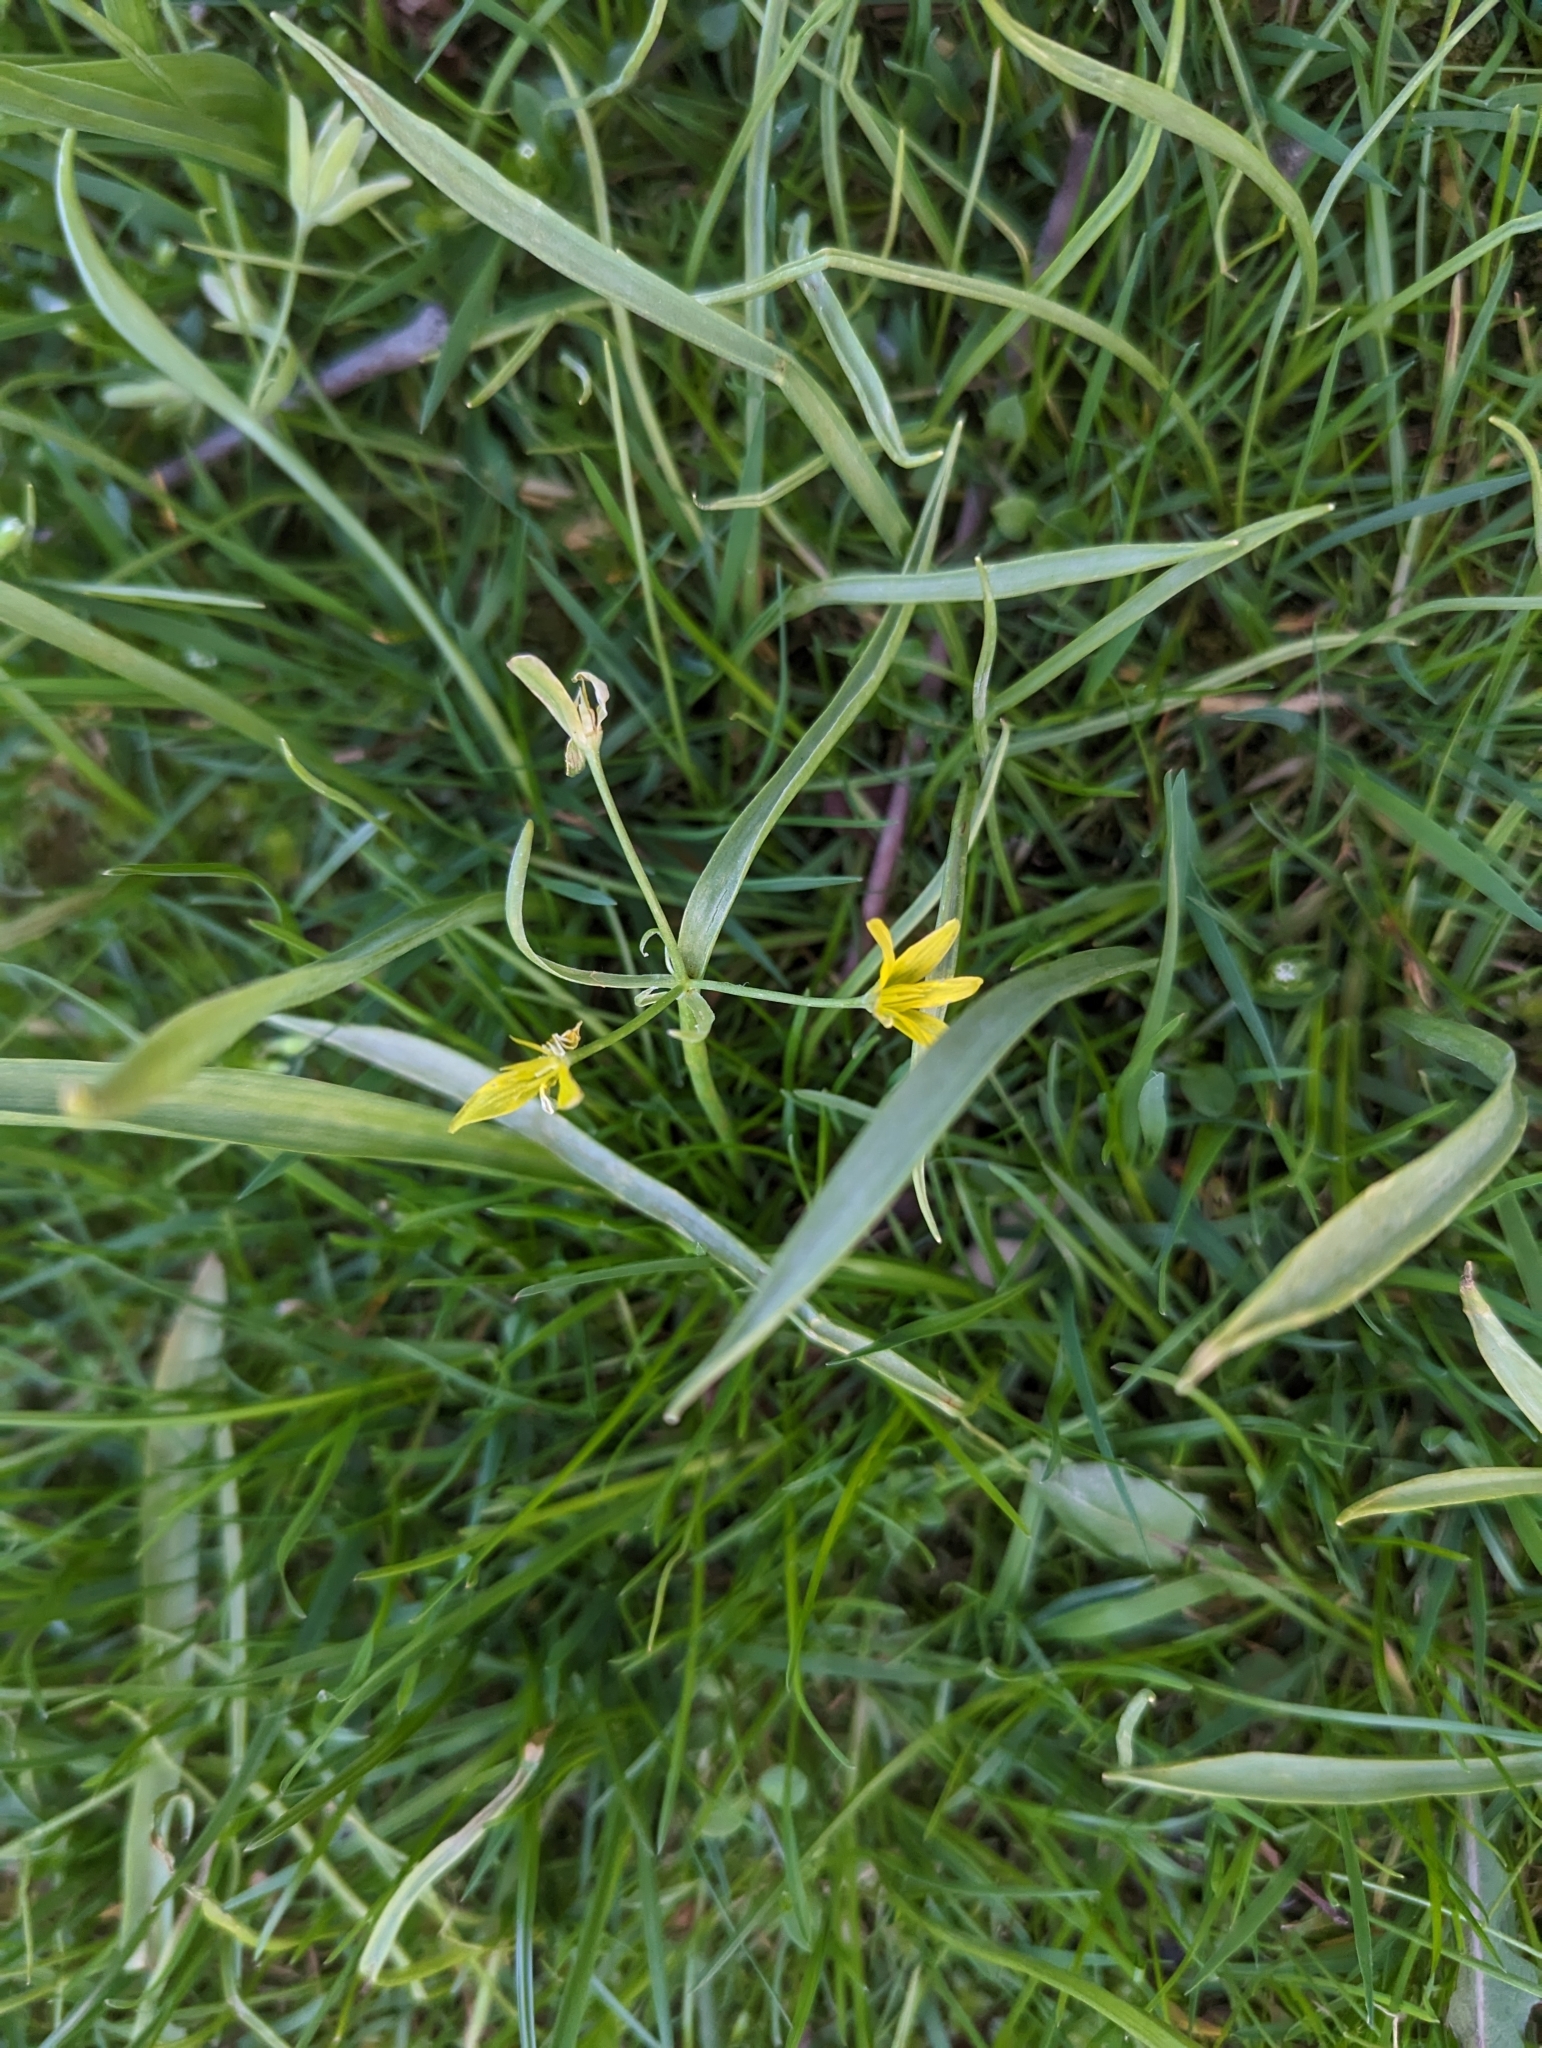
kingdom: Plantae
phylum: Tracheophyta
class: Liliopsida
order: Liliales
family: Liliaceae
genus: Gagea
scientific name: Gagea lutea
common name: Yellow star-of-bethlehem
